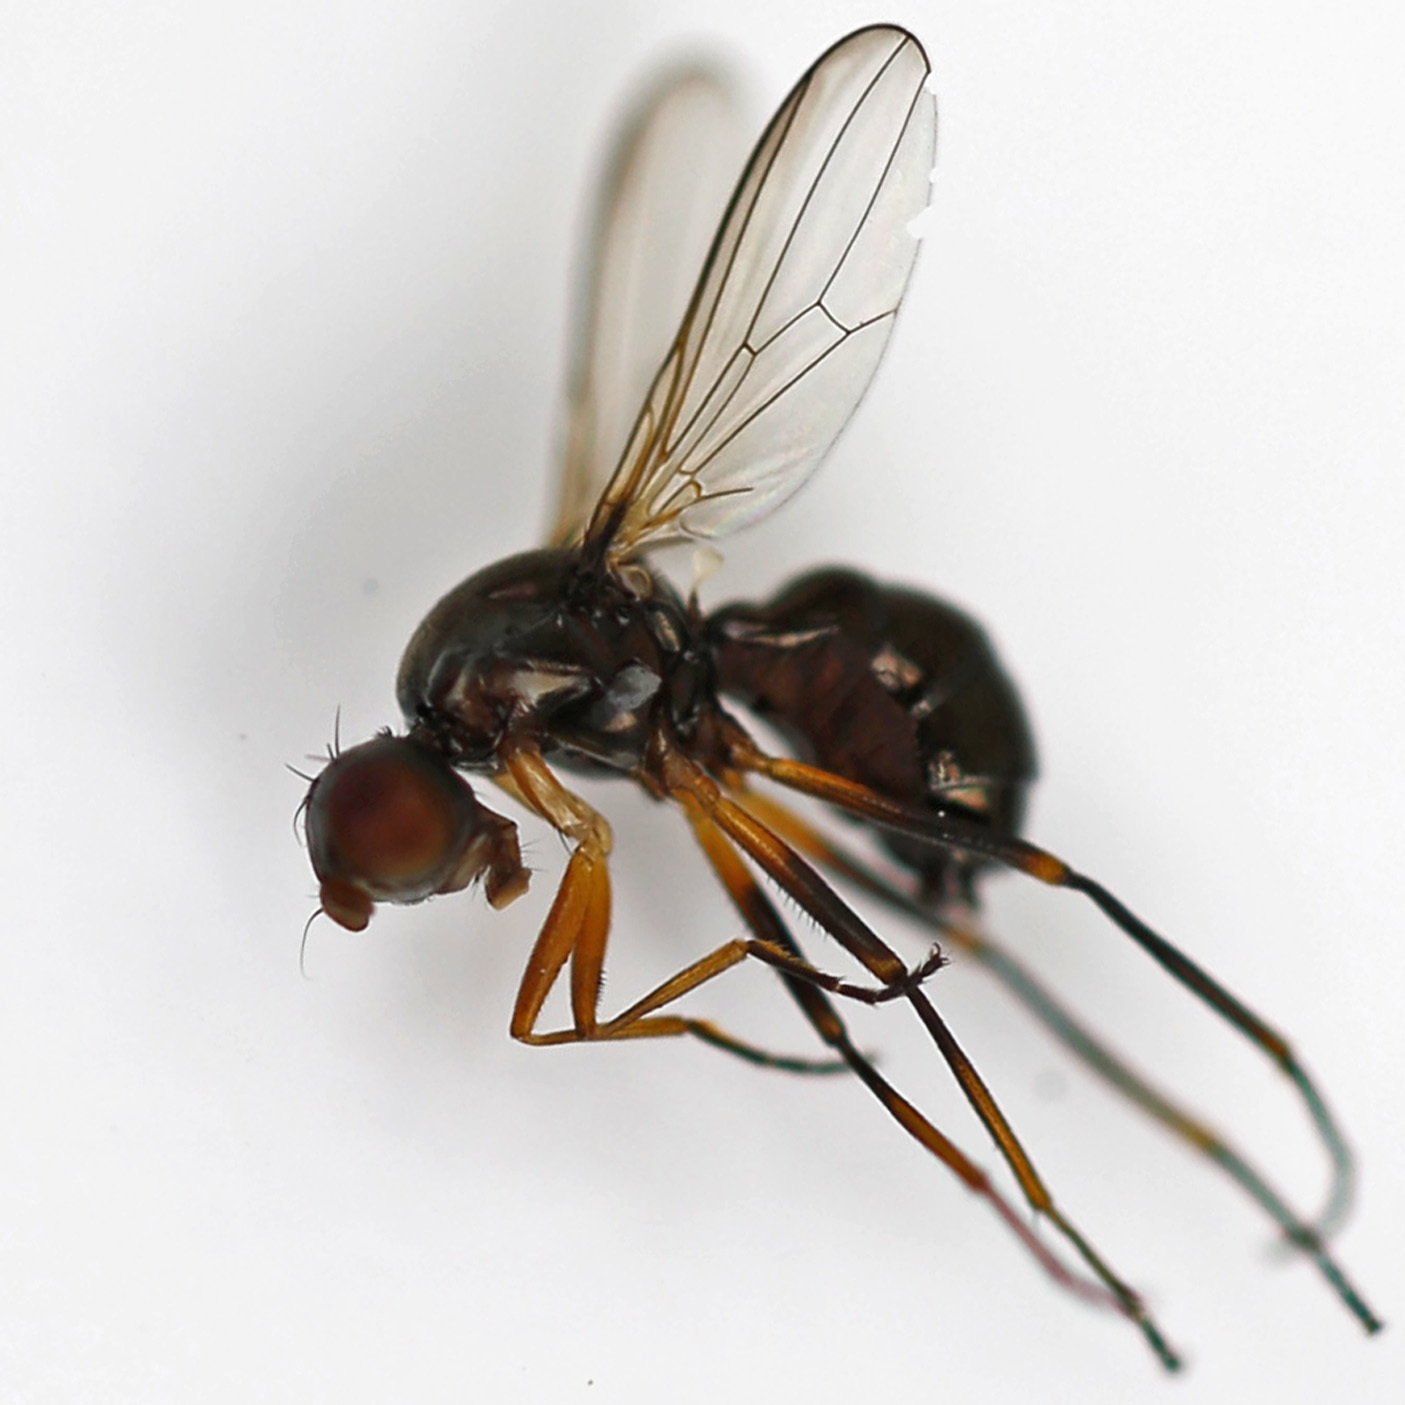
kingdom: Animalia
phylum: Arthropoda
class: Insecta
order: Diptera
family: Sepsidae
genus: Nemopoda
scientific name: Nemopoda nitidula
